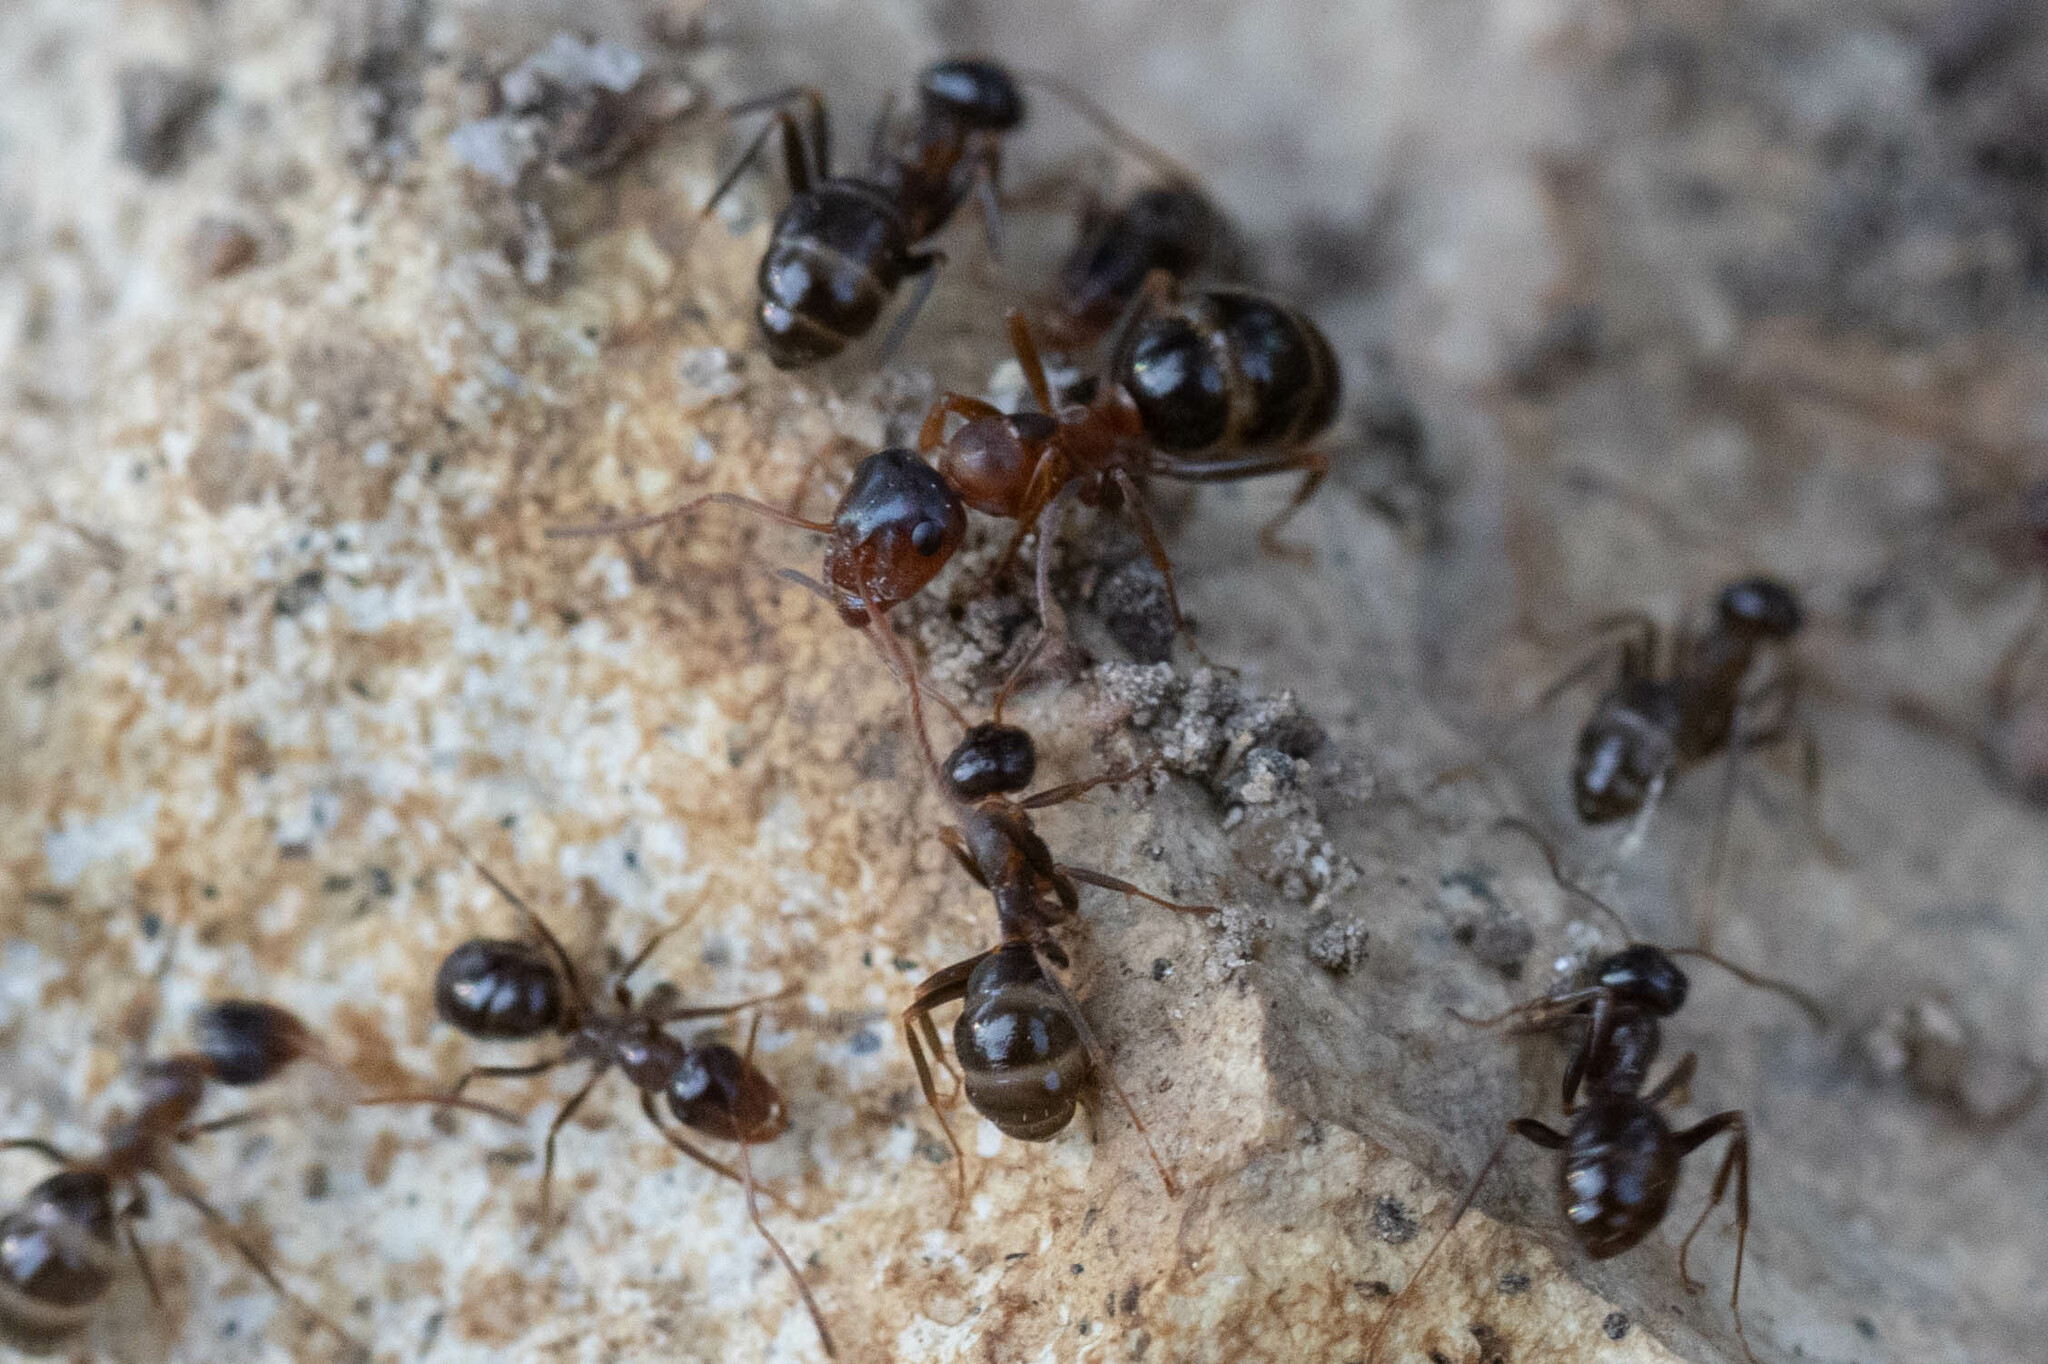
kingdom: Animalia
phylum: Arthropoda
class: Insecta
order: Hymenoptera
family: Formicidae
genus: Formica
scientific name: Formica subpolita
